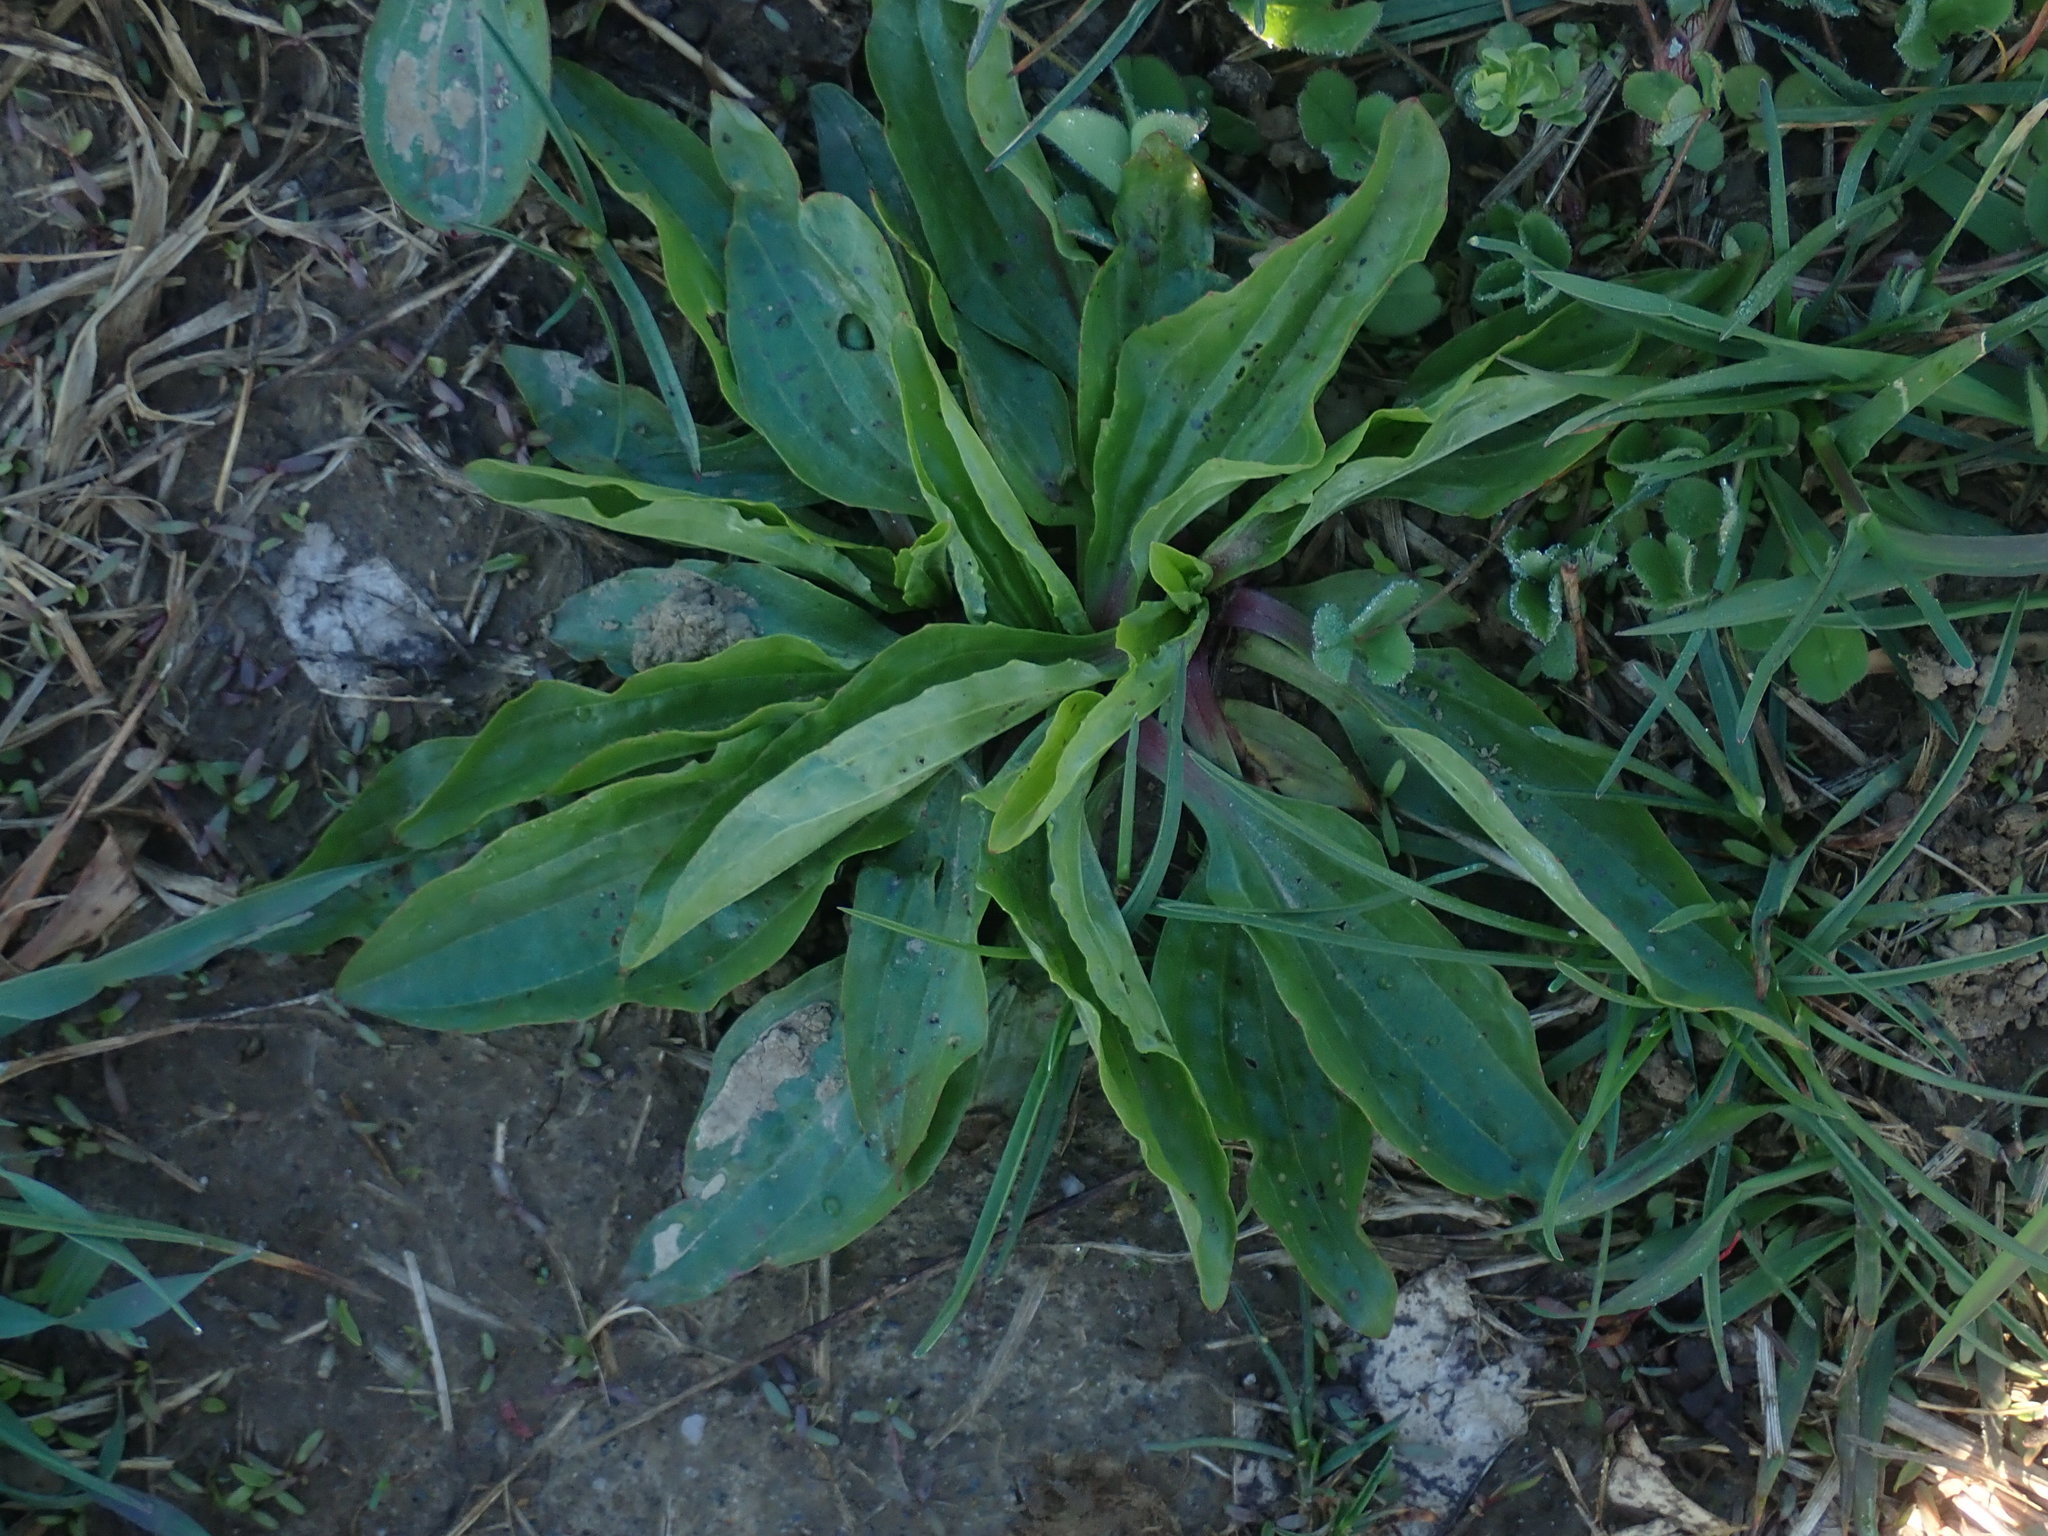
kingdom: Plantae
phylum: Tracheophyta
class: Magnoliopsida
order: Lamiales
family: Plantaginaceae
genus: Plantago
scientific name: Plantago rugelii
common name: American plantain
